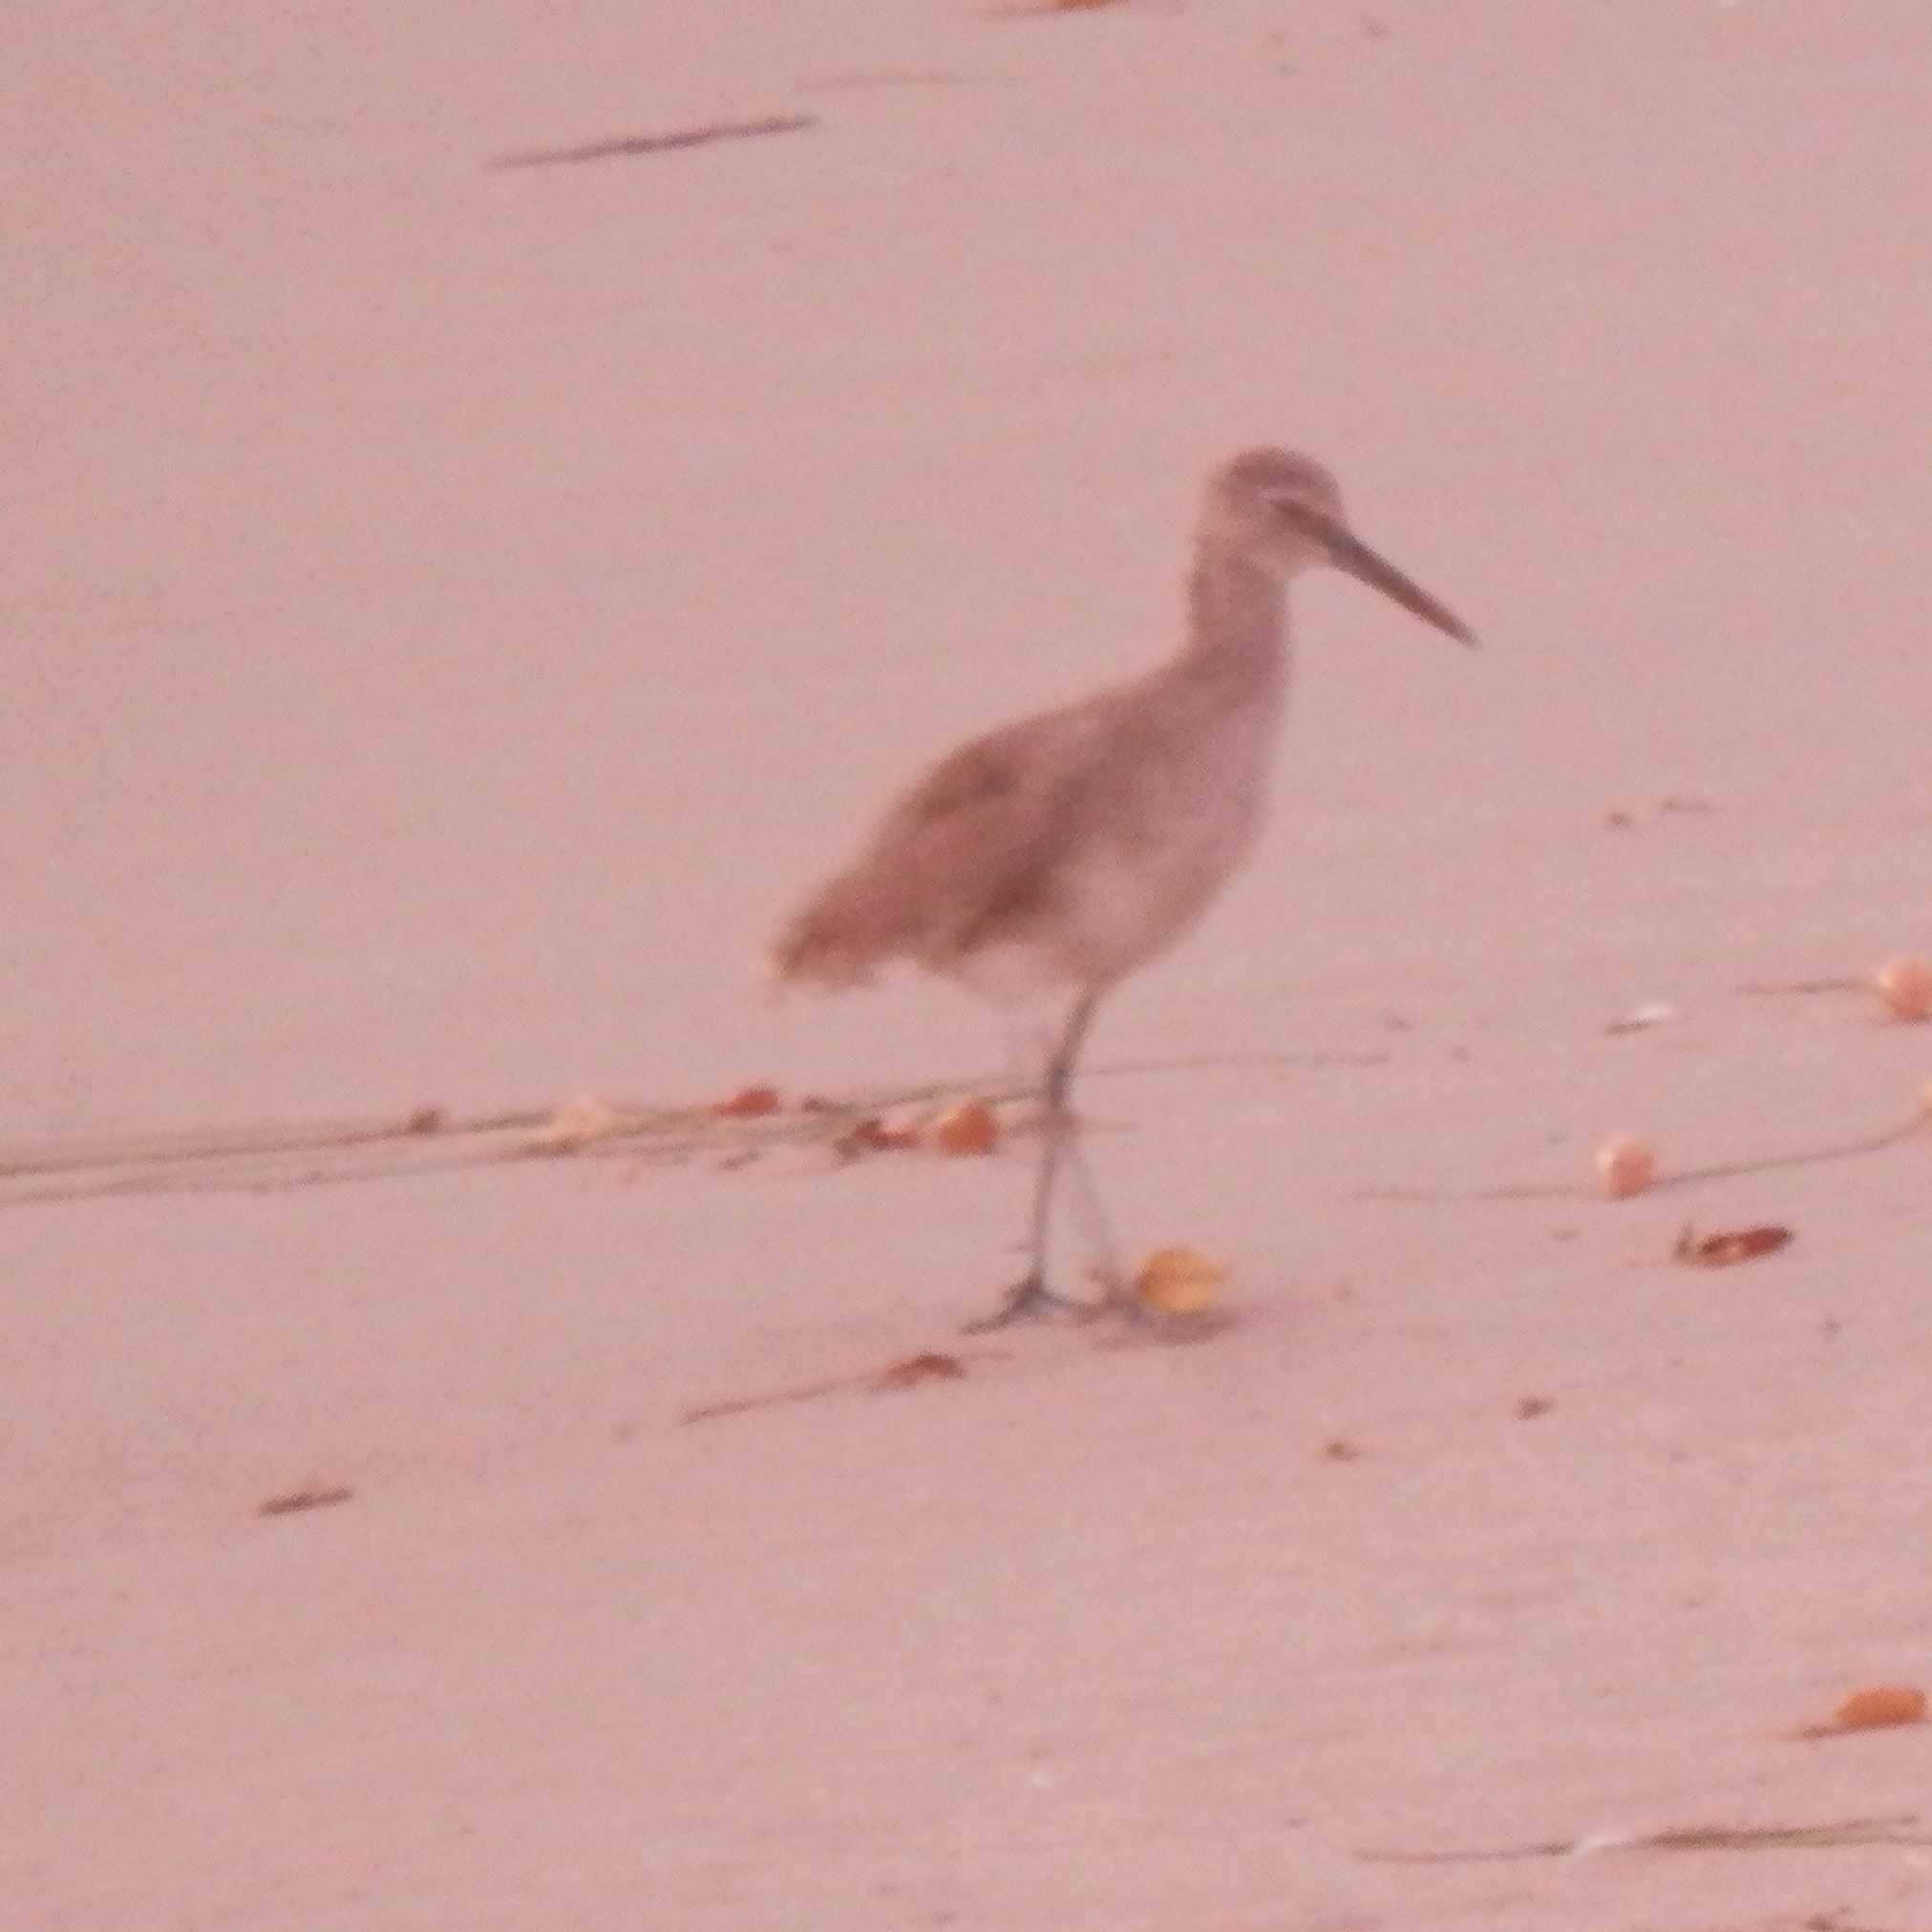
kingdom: Animalia
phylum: Chordata
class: Aves
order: Charadriiformes
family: Scolopacidae
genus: Tringa
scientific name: Tringa semipalmata
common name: Willet
